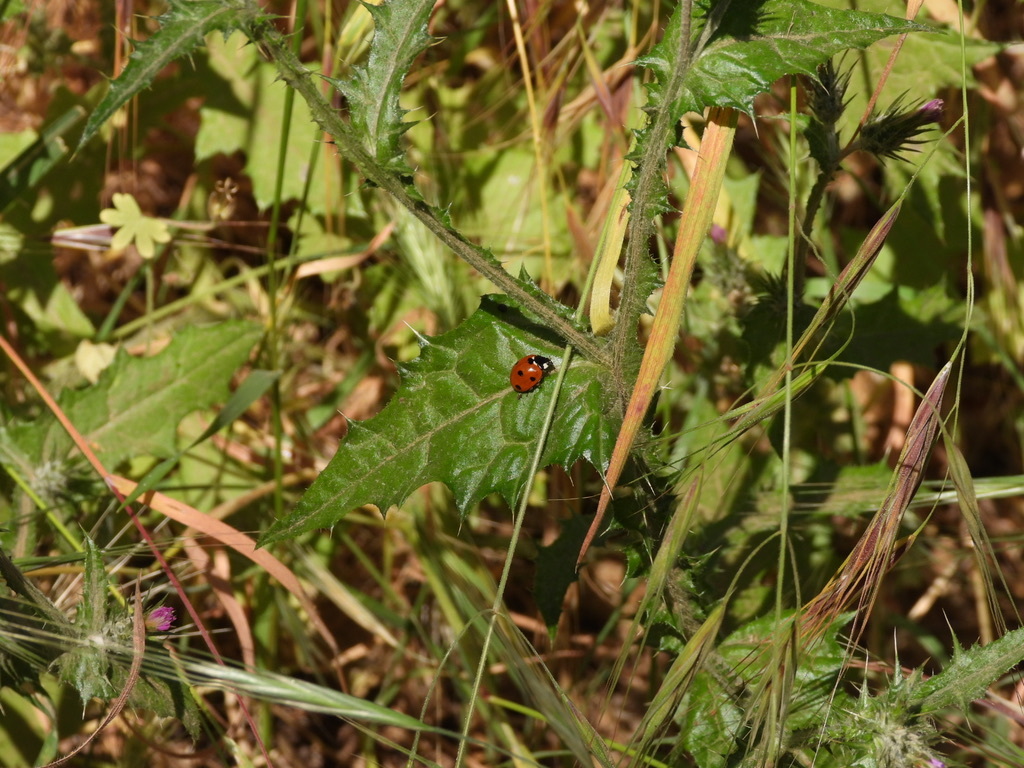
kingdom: Animalia
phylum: Arthropoda
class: Insecta
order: Coleoptera
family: Coccinellidae
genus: Coccinella
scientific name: Coccinella septempunctata
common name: Sevenspotted lady beetle
